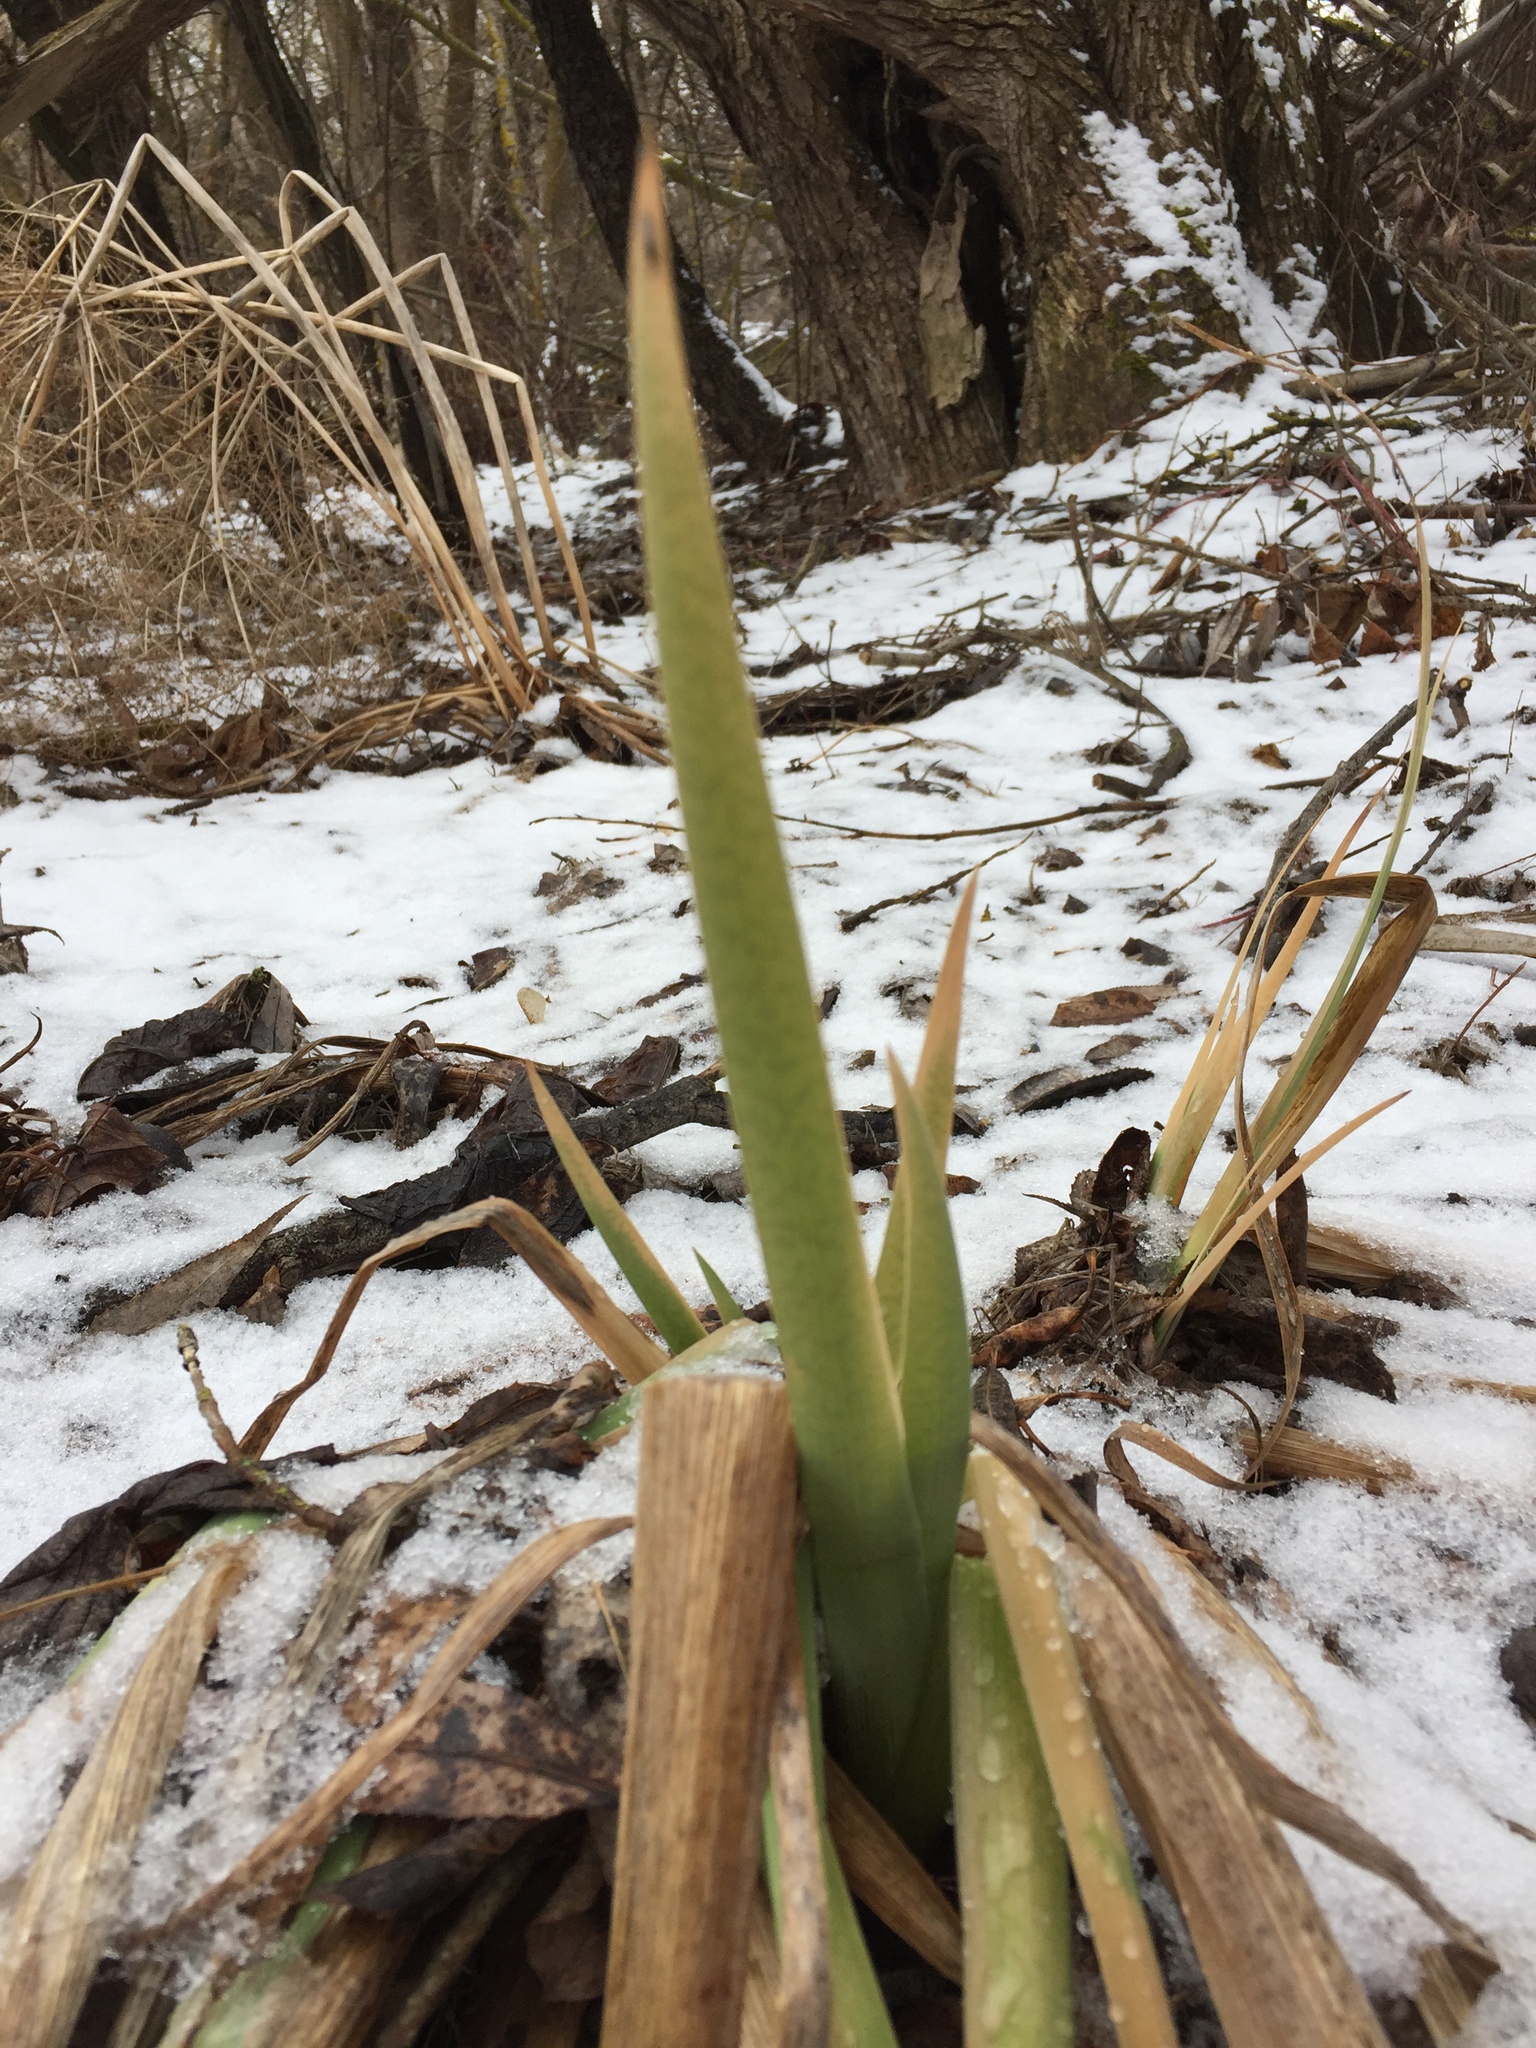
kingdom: Plantae
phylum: Tracheophyta
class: Liliopsida
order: Poales
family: Typhaceae
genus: Typha
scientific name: Typha latifolia
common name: Broadleaf cattail
